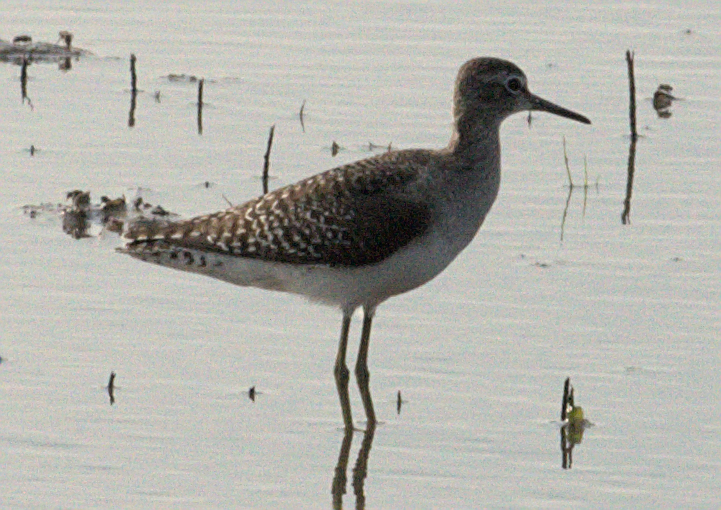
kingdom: Animalia
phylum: Chordata
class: Aves
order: Charadriiformes
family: Scolopacidae
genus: Tringa
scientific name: Tringa glareola
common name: Wood sandpiper
